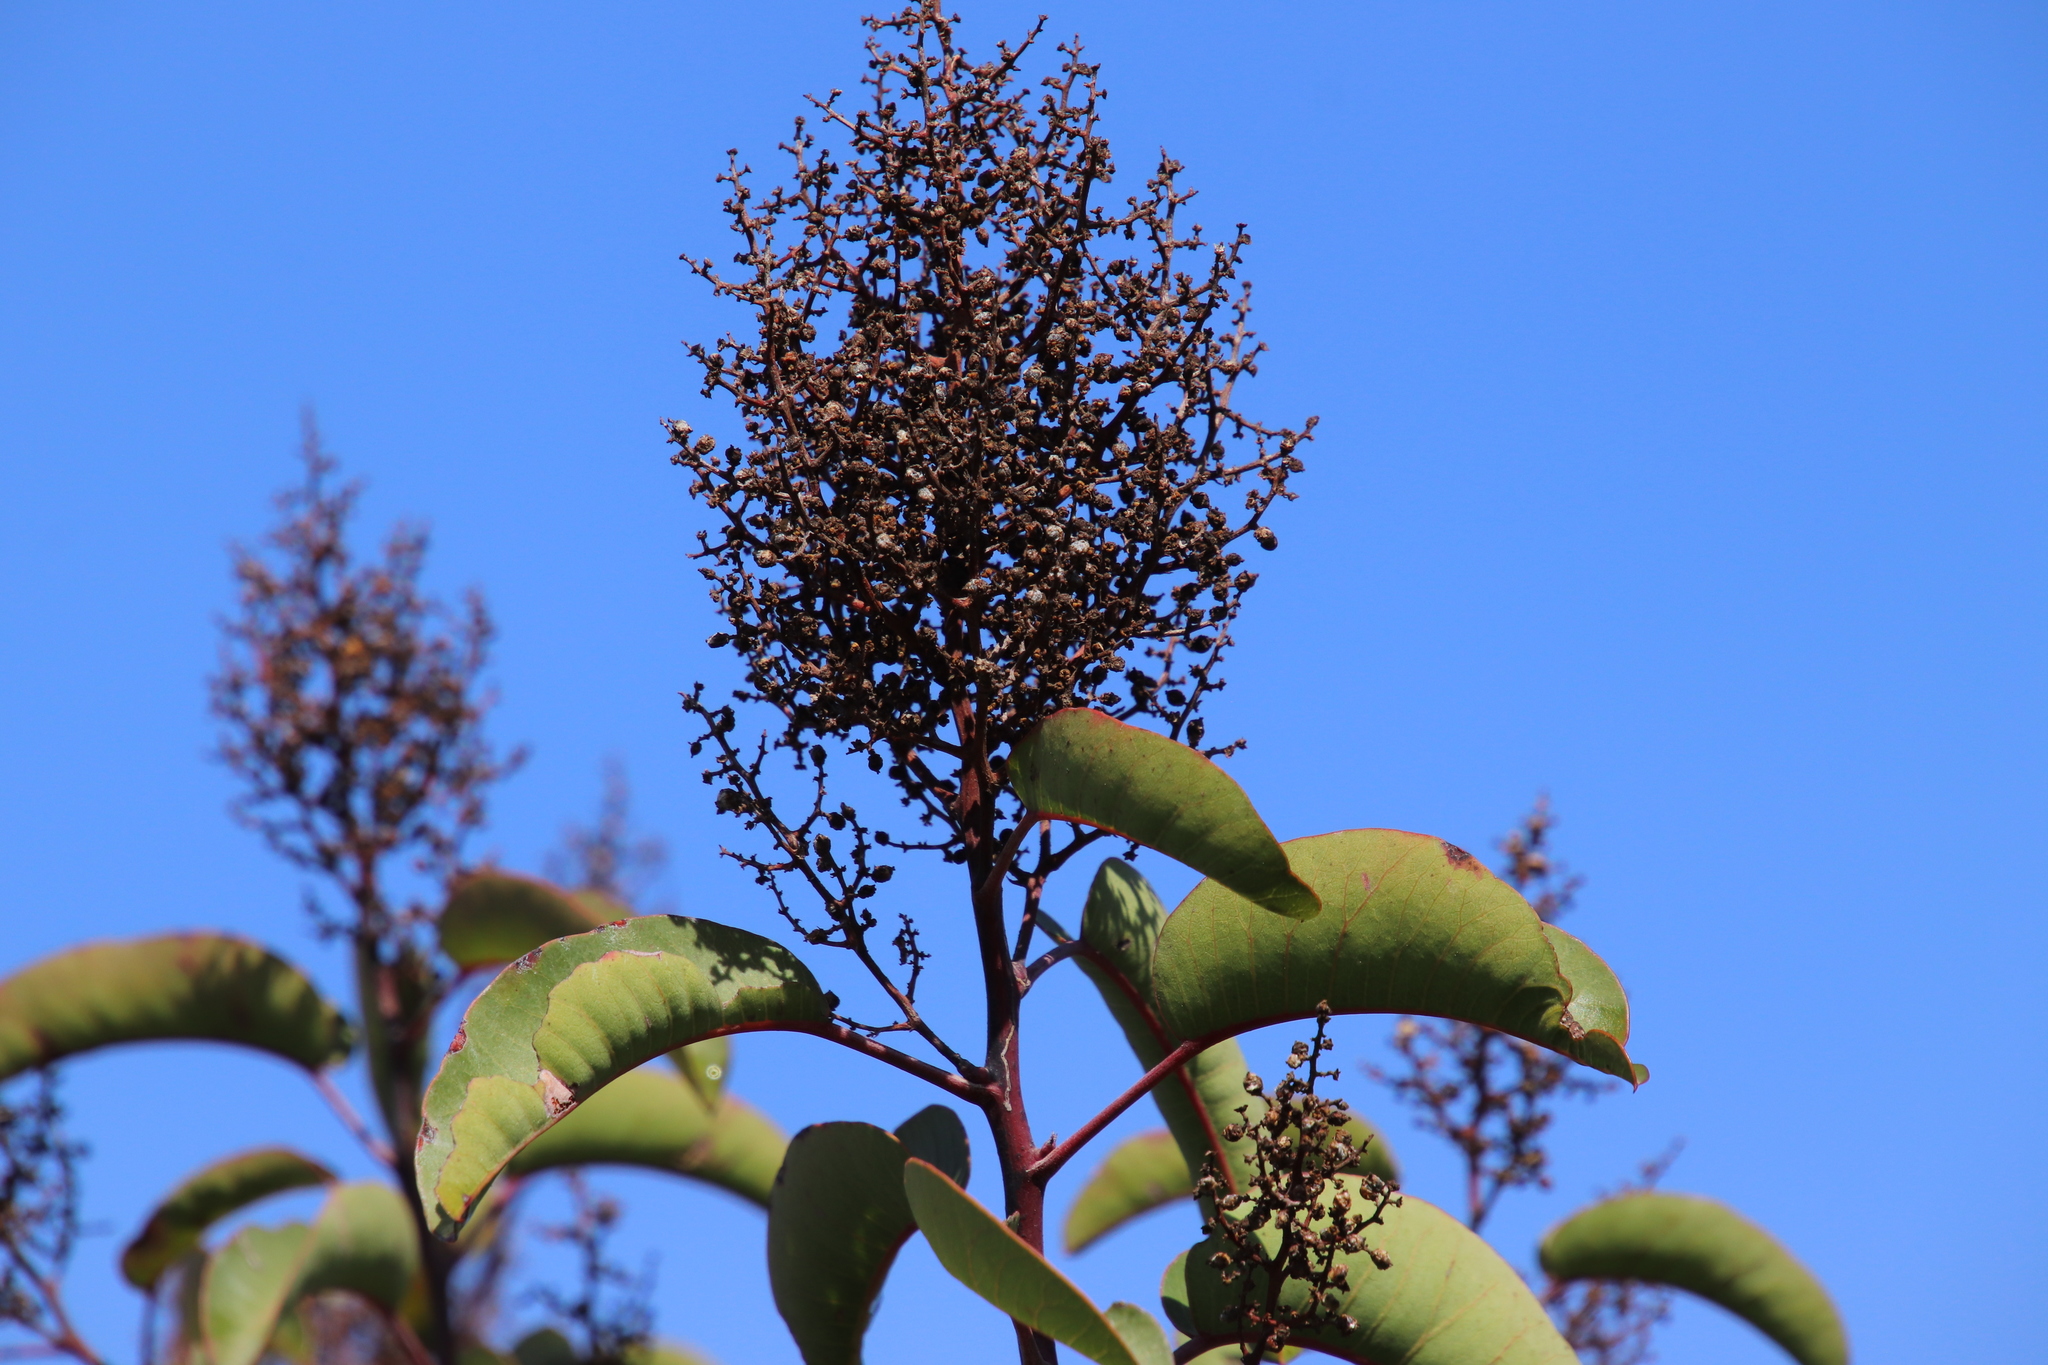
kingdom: Plantae
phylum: Tracheophyta
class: Magnoliopsida
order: Sapindales
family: Anacardiaceae
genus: Malosma
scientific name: Malosma laurina
